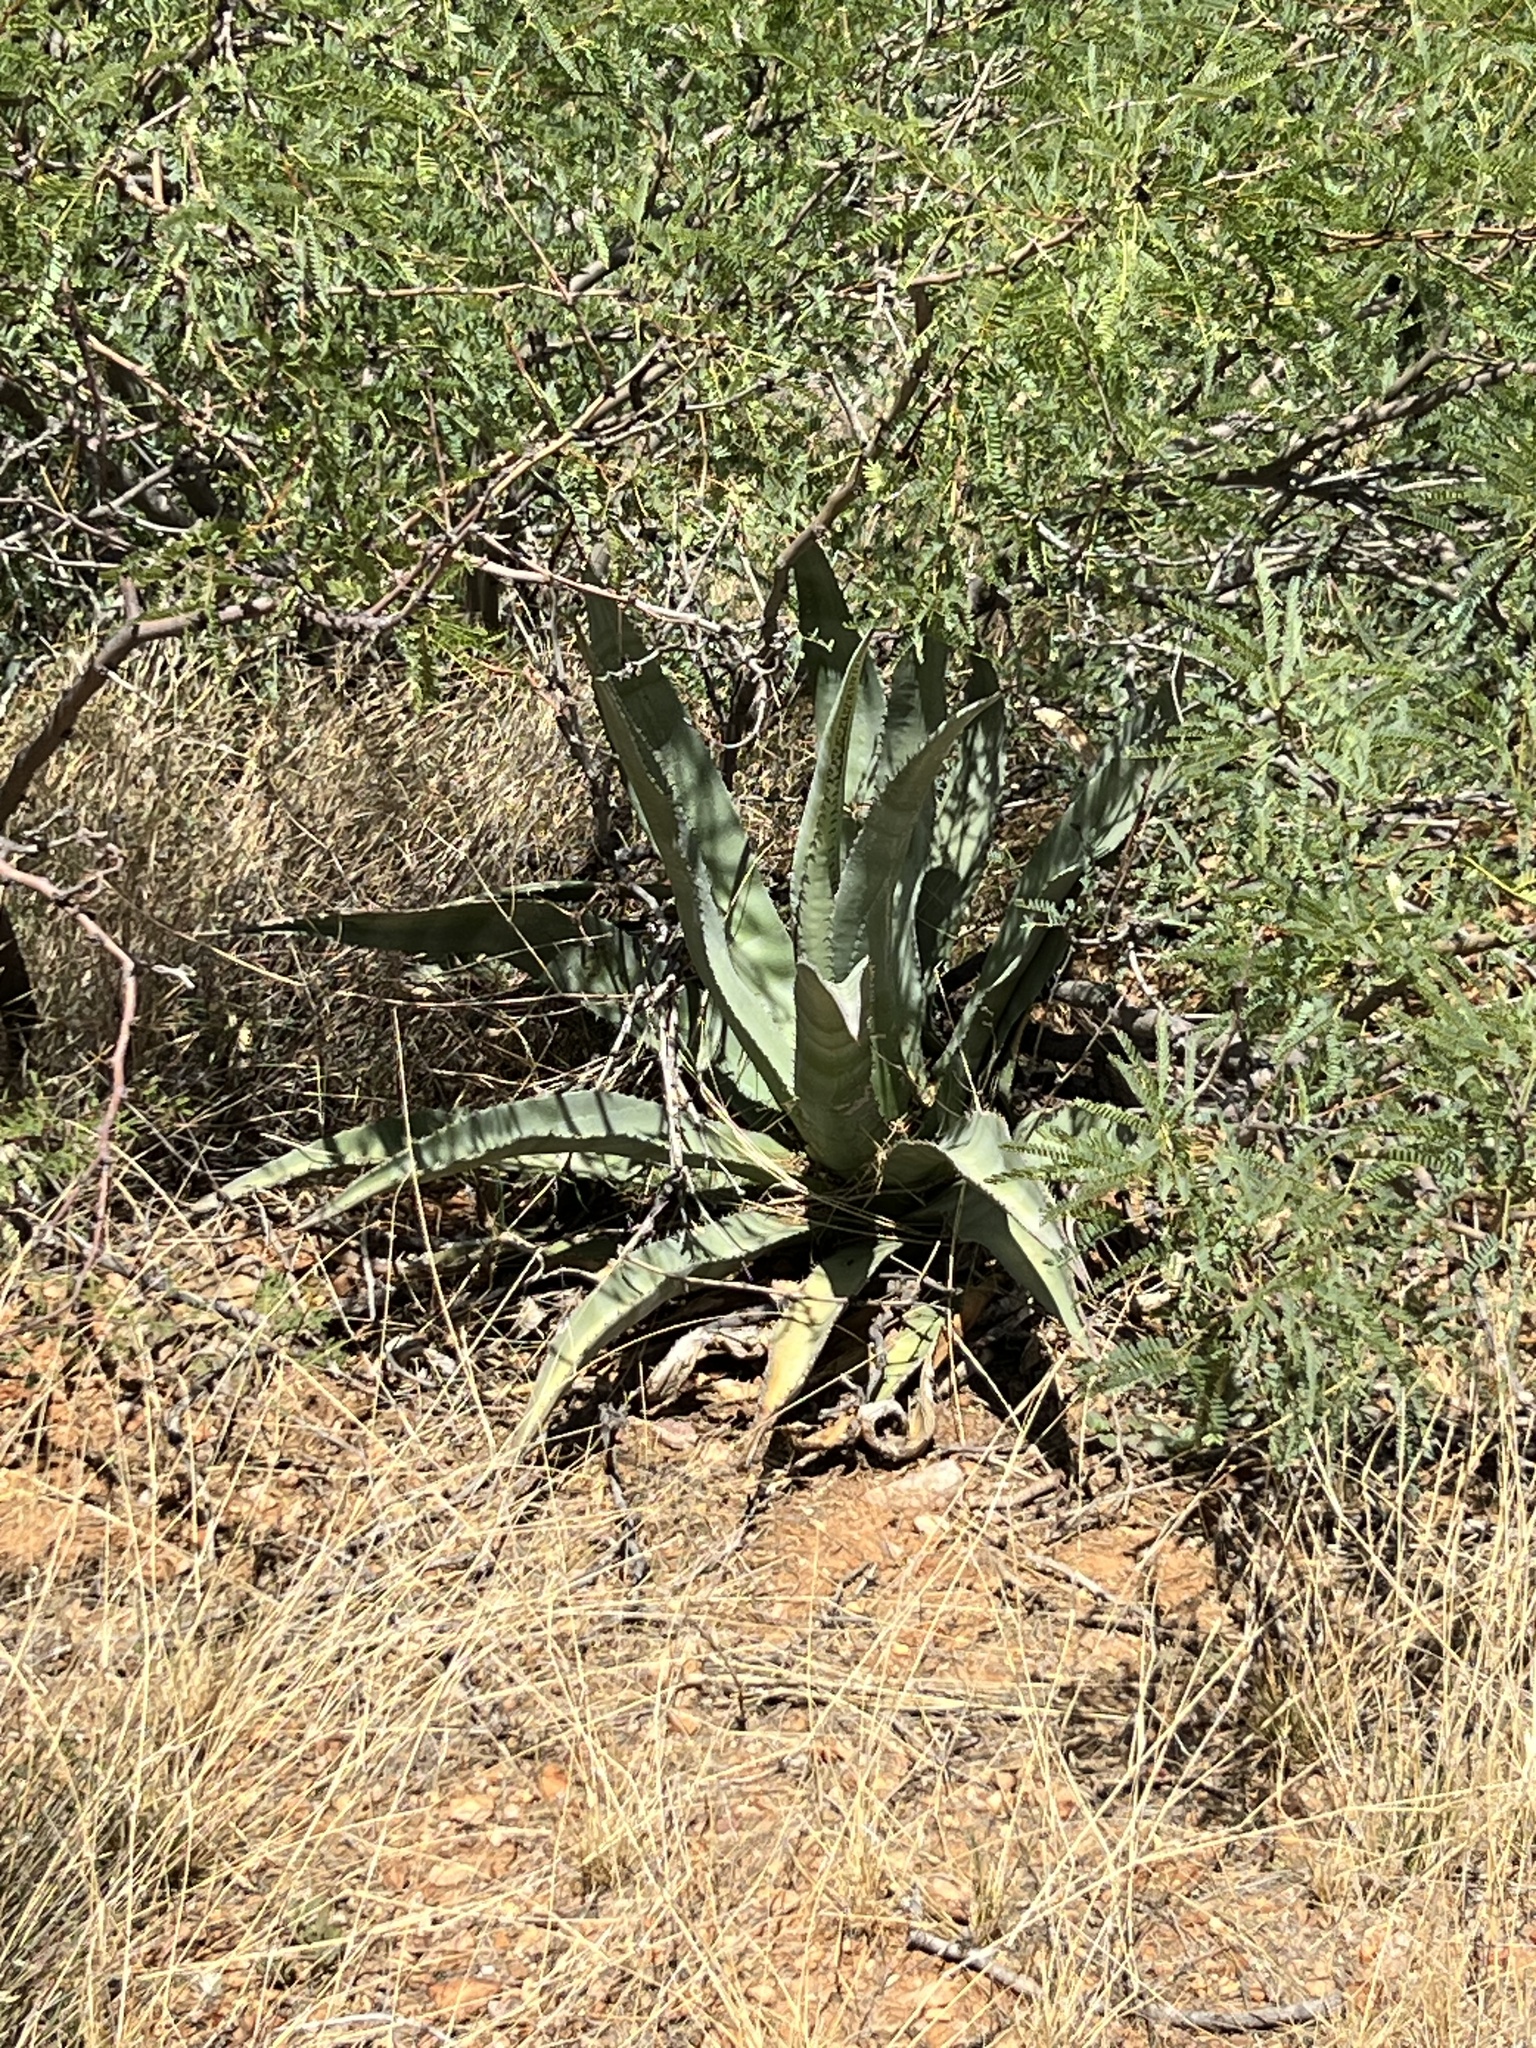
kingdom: Plantae
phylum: Tracheophyta
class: Liliopsida
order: Asparagales
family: Asparagaceae
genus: Agave
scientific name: Agave palmeri
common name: Palmer agave
